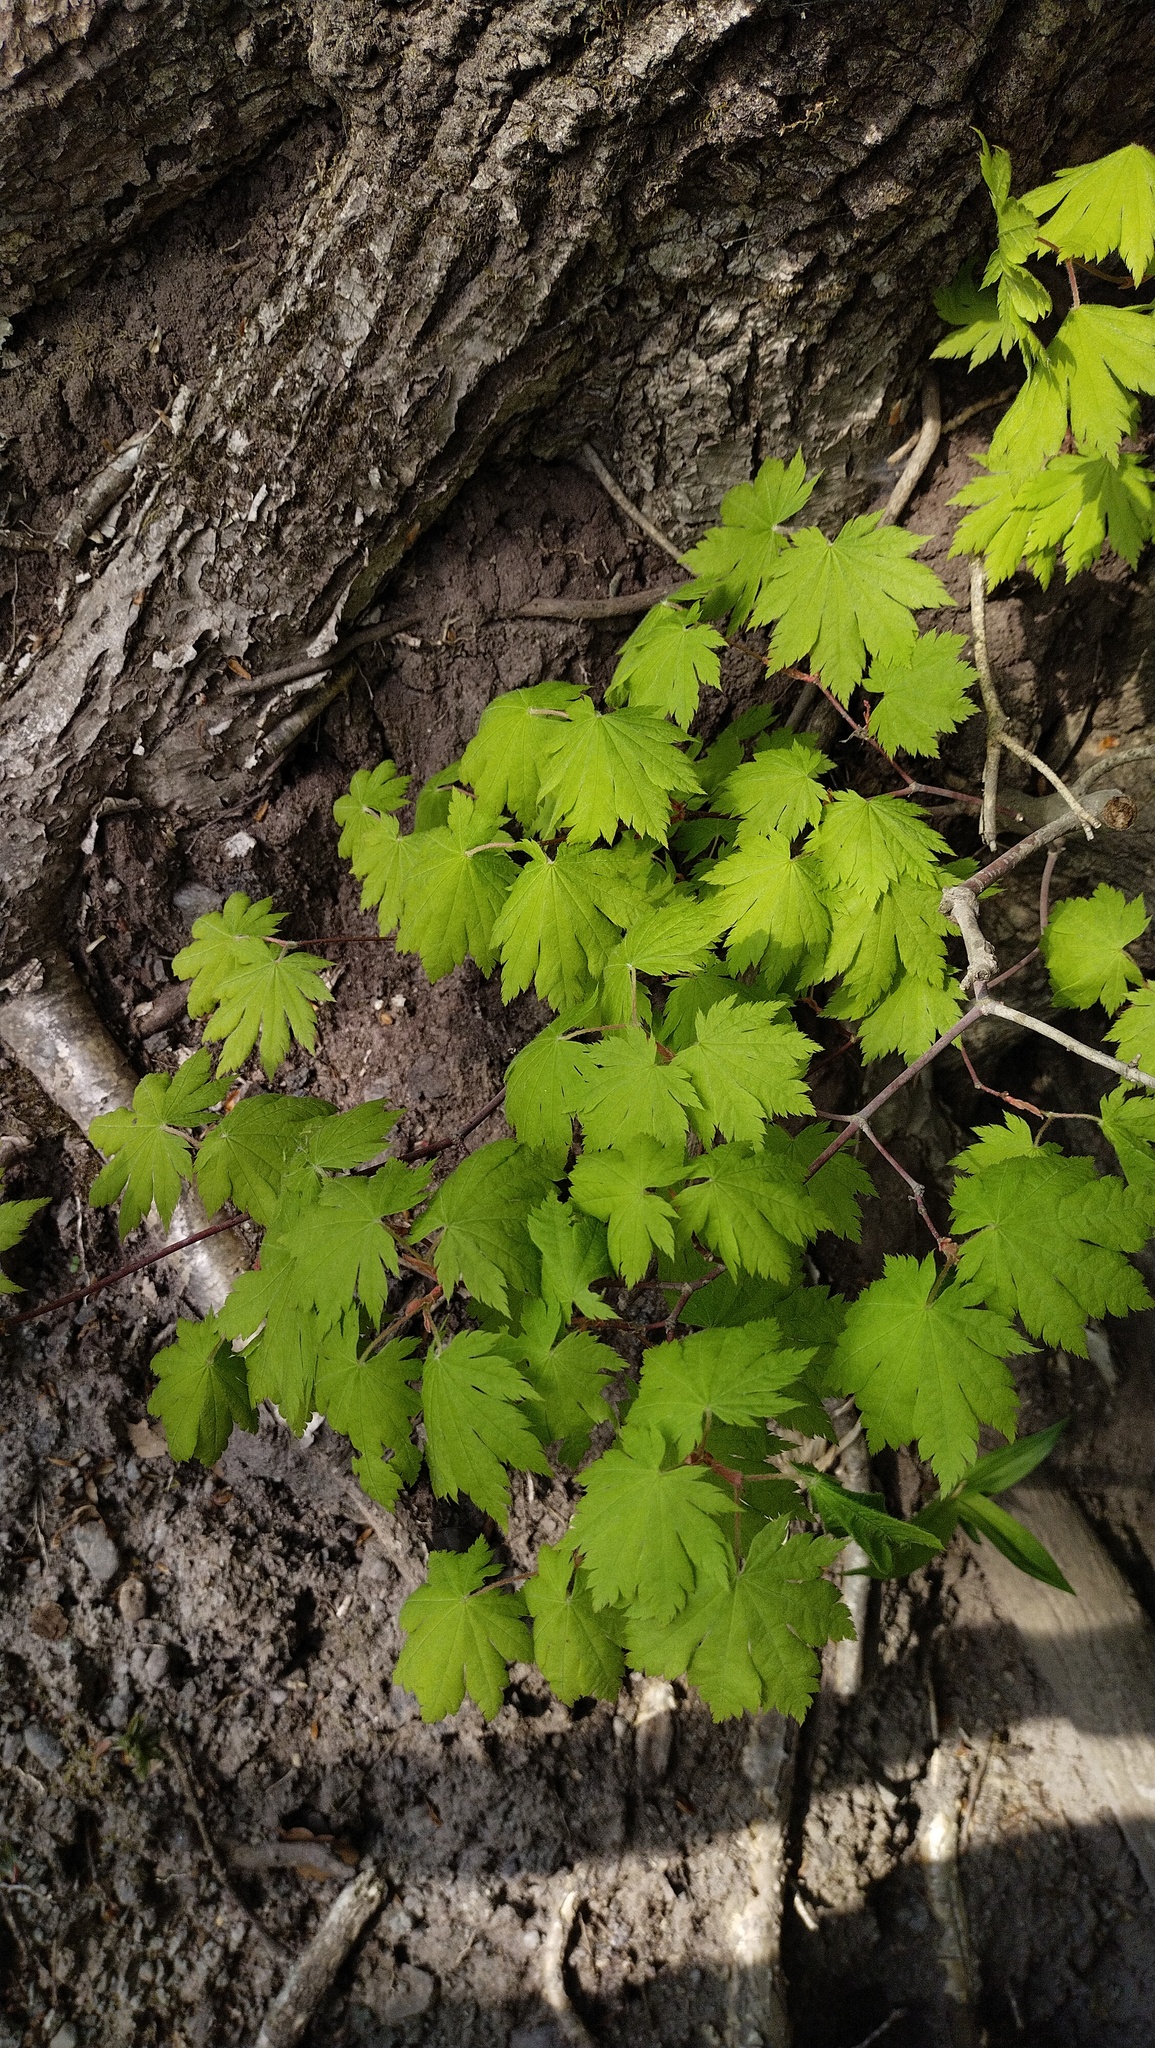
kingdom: Plantae
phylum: Tracheophyta
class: Magnoliopsida
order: Sapindales
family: Sapindaceae
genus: Acer
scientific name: Acer pseudosieboldianum
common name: Korean maple
